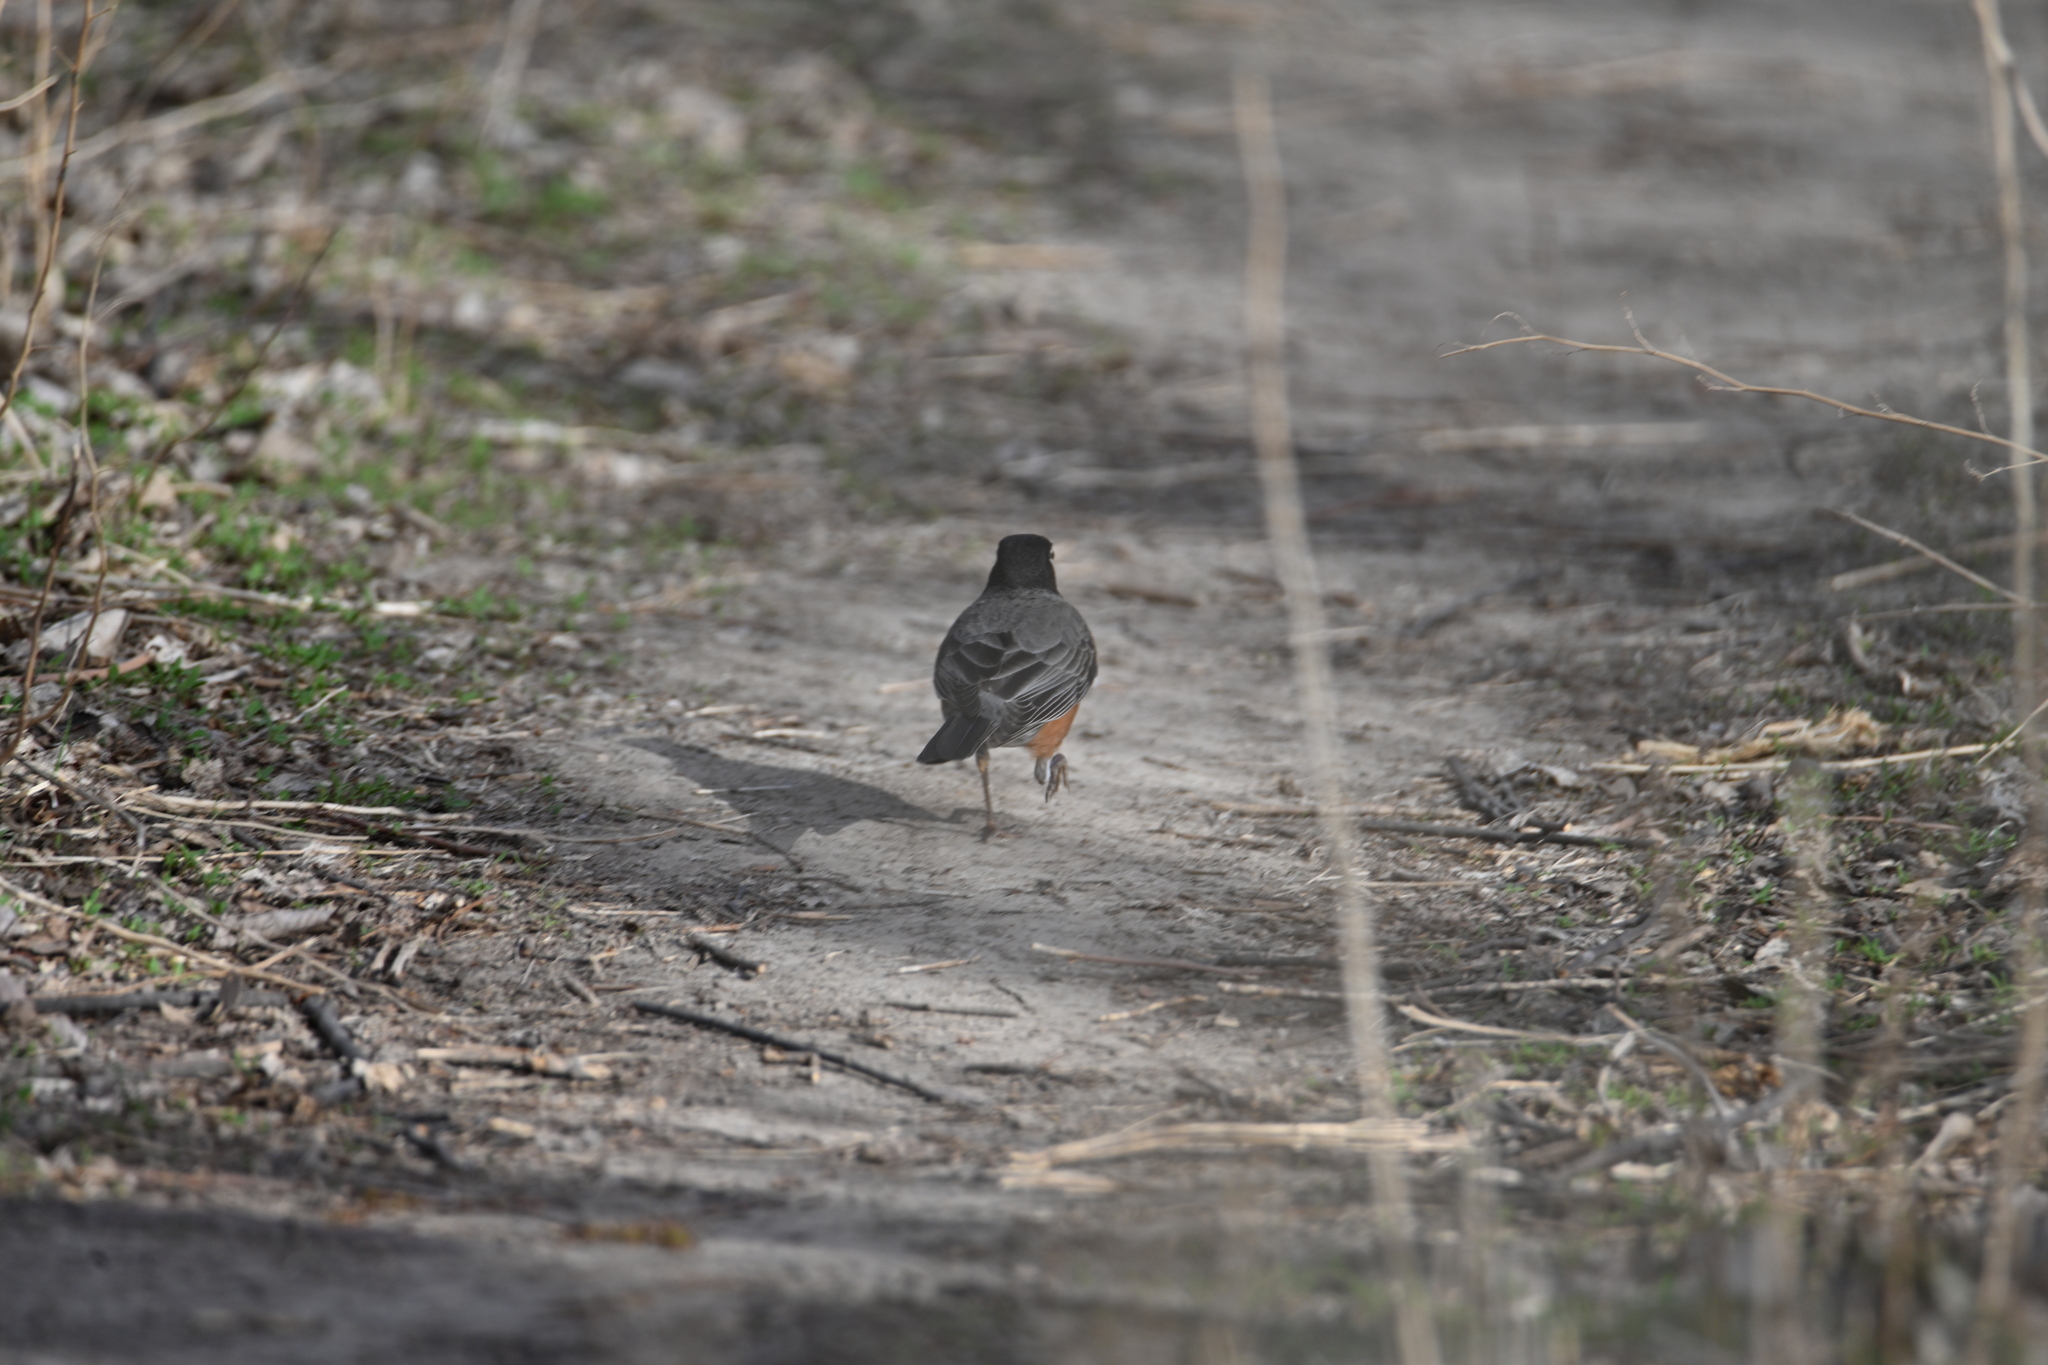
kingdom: Animalia
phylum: Chordata
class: Aves
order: Passeriformes
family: Turdidae
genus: Turdus
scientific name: Turdus migratorius
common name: American robin
